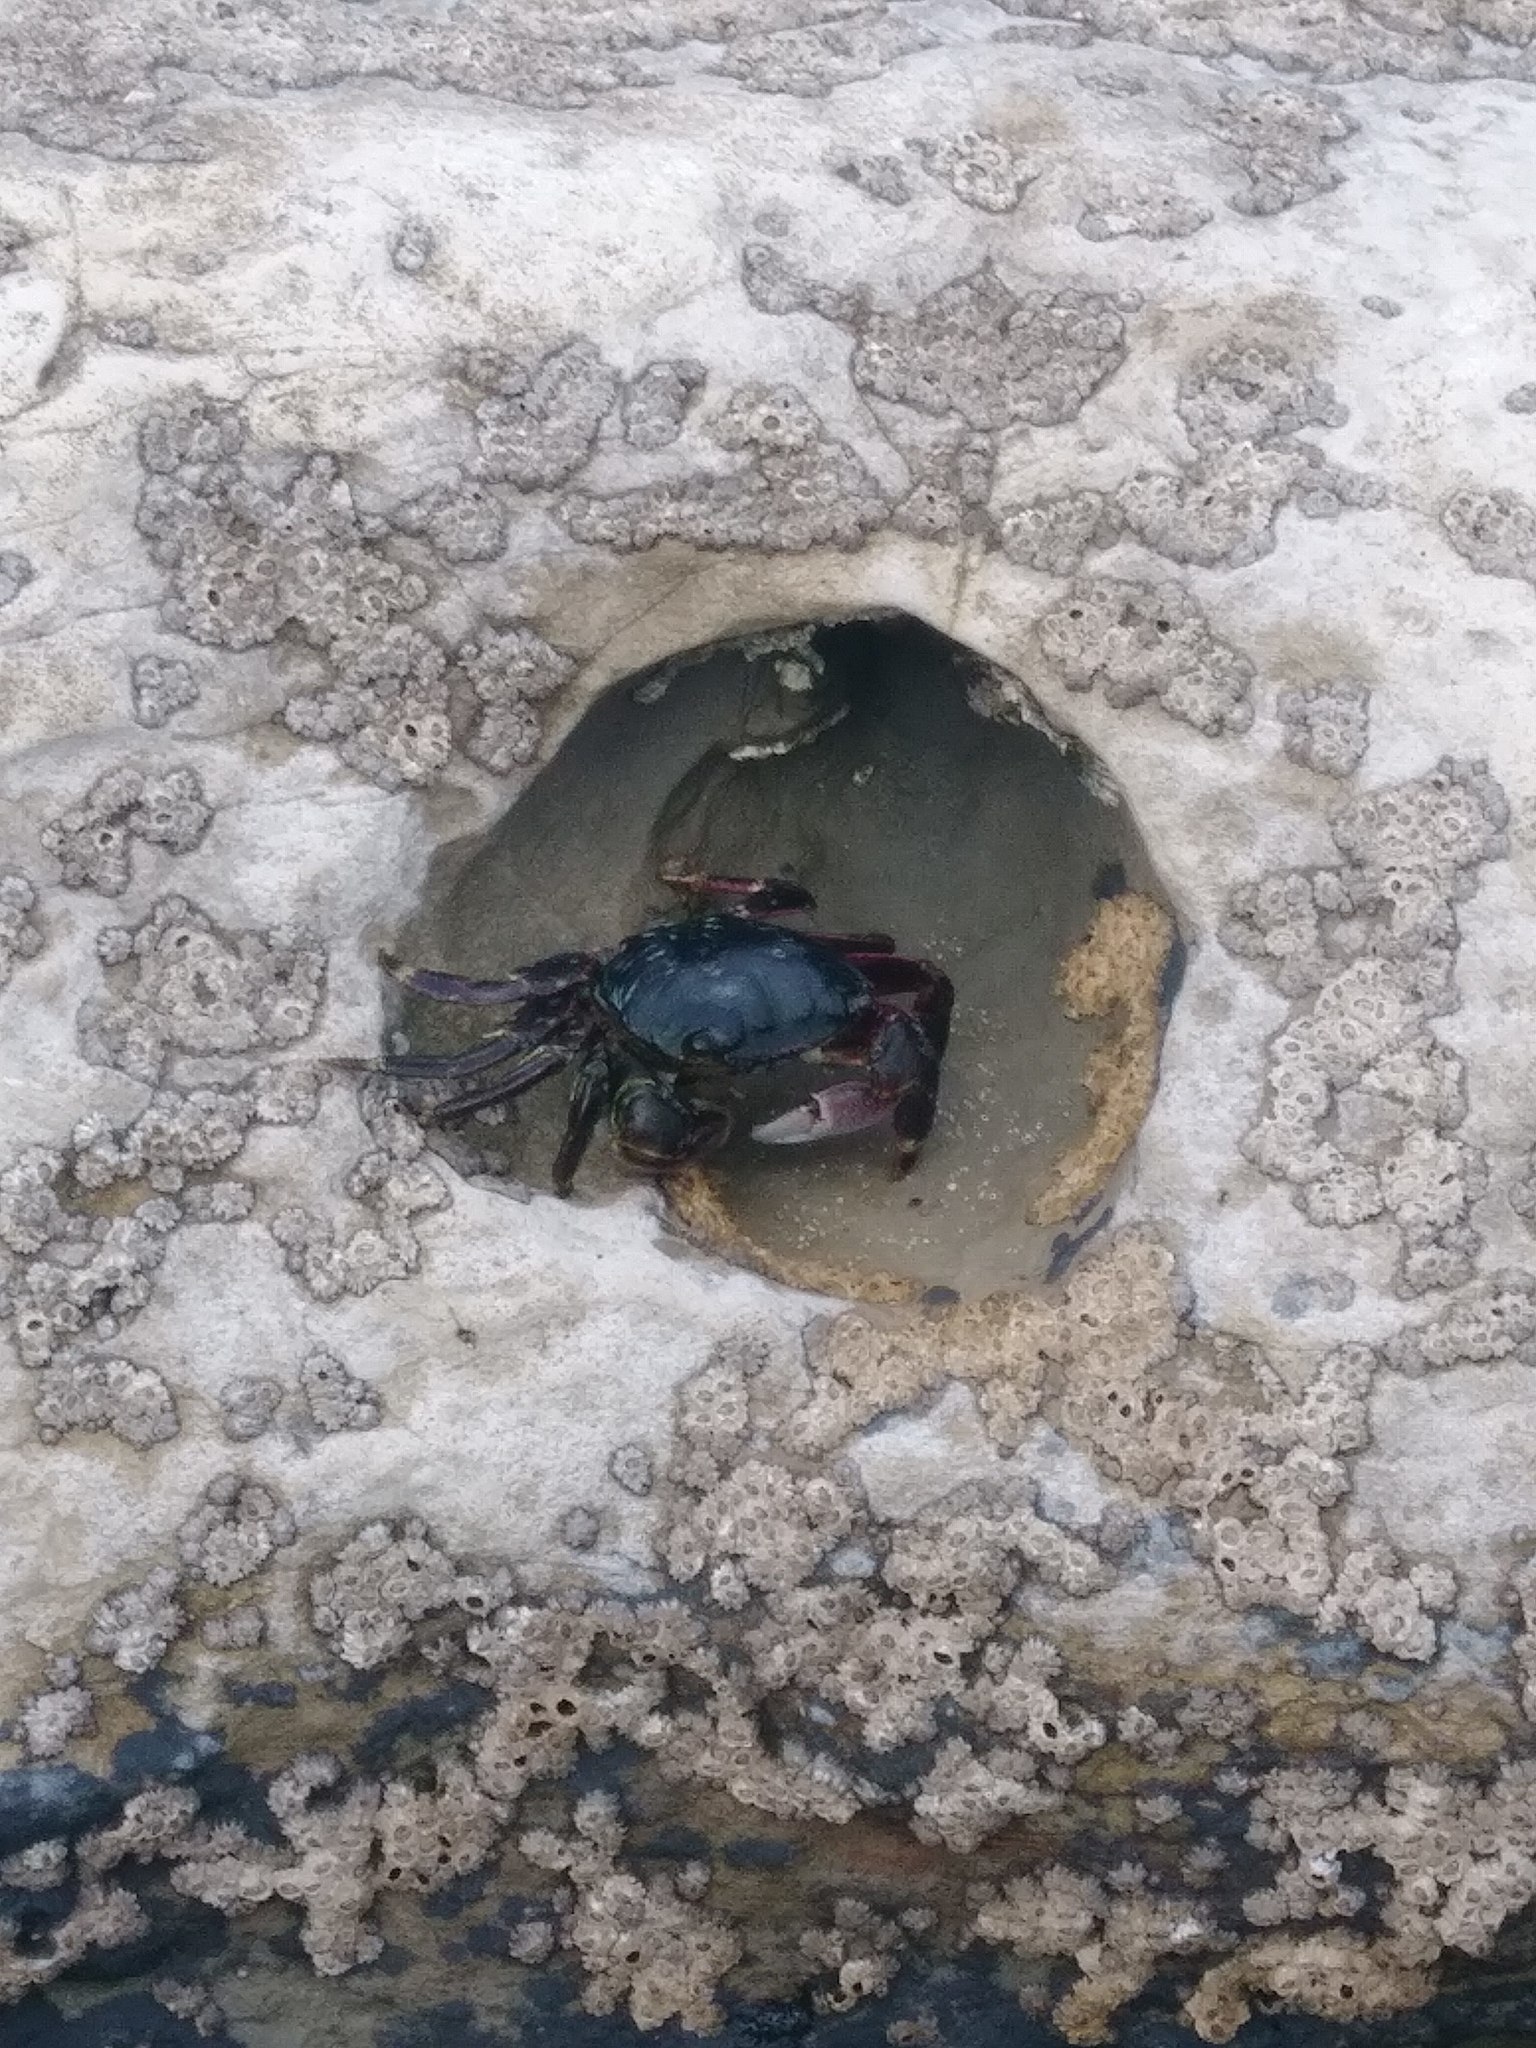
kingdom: Animalia
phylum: Arthropoda
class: Malacostraca
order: Decapoda
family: Grapsidae
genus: Pachygrapsus
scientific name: Pachygrapsus crassipes
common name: Striped shore crab
